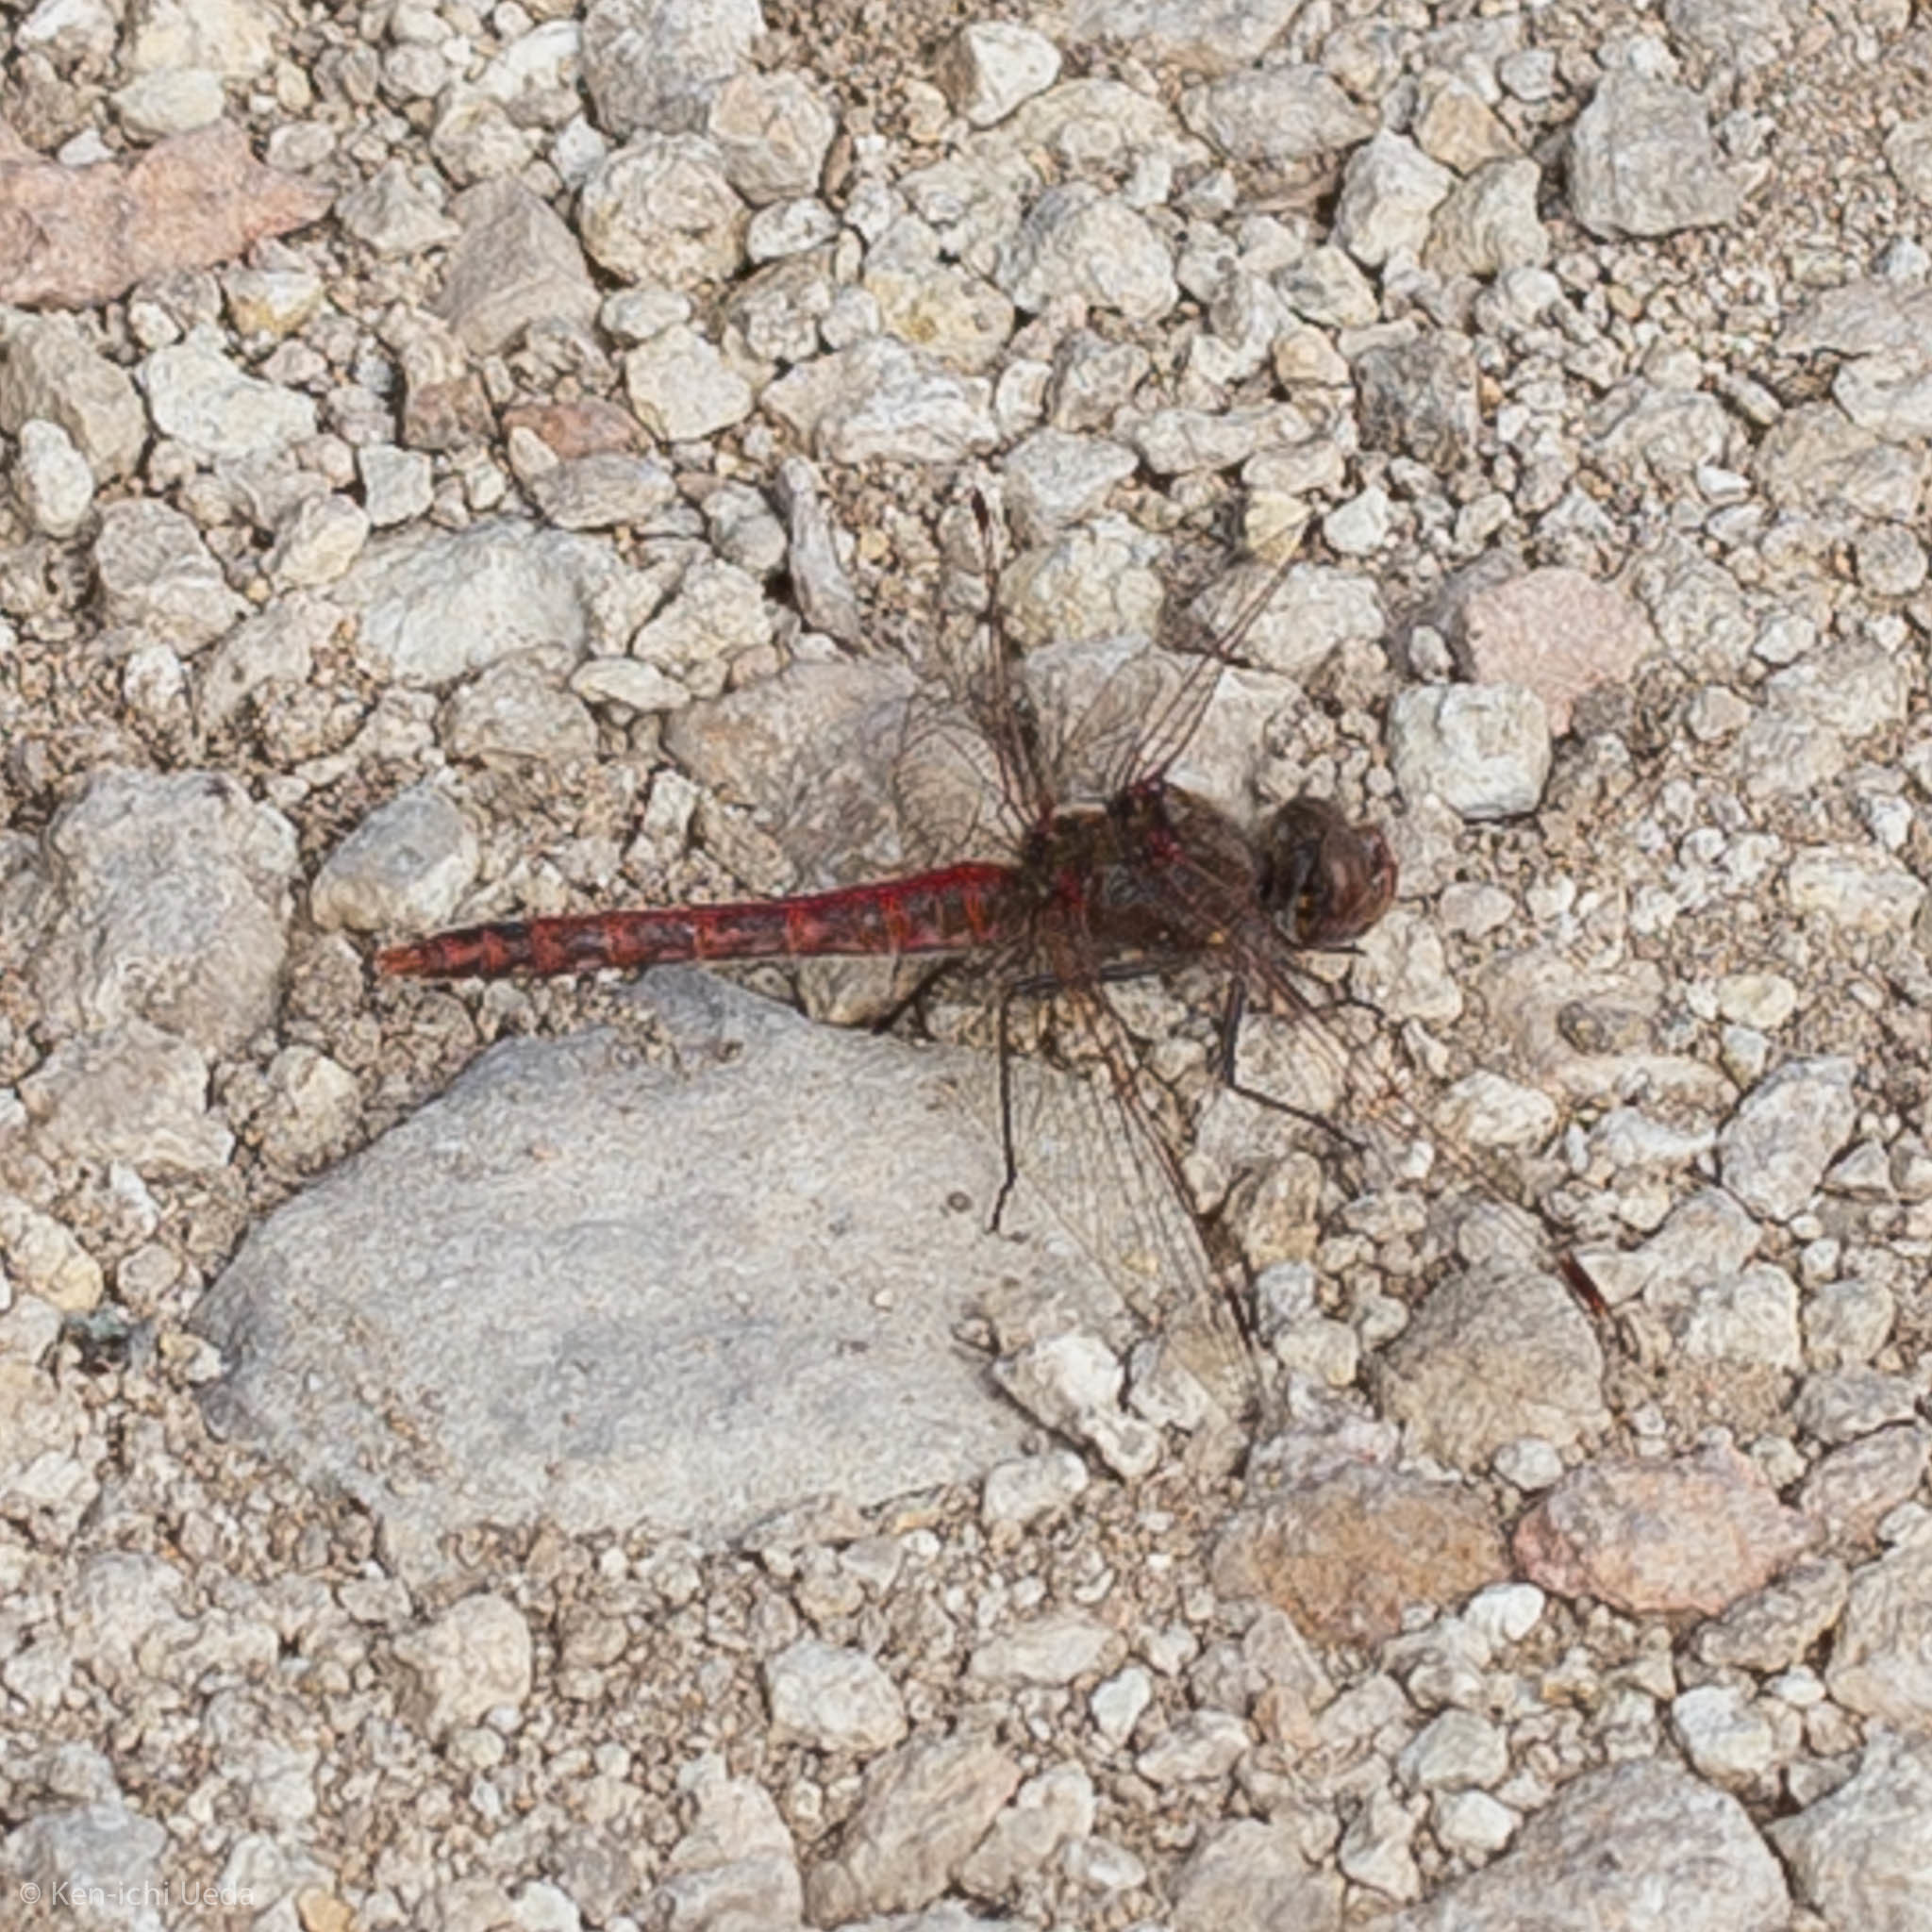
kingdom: Animalia
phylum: Arthropoda
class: Insecta
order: Odonata
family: Libellulidae
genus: Sympetrum
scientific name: Sympetrum corruptum
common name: Variegated meadowhawk
